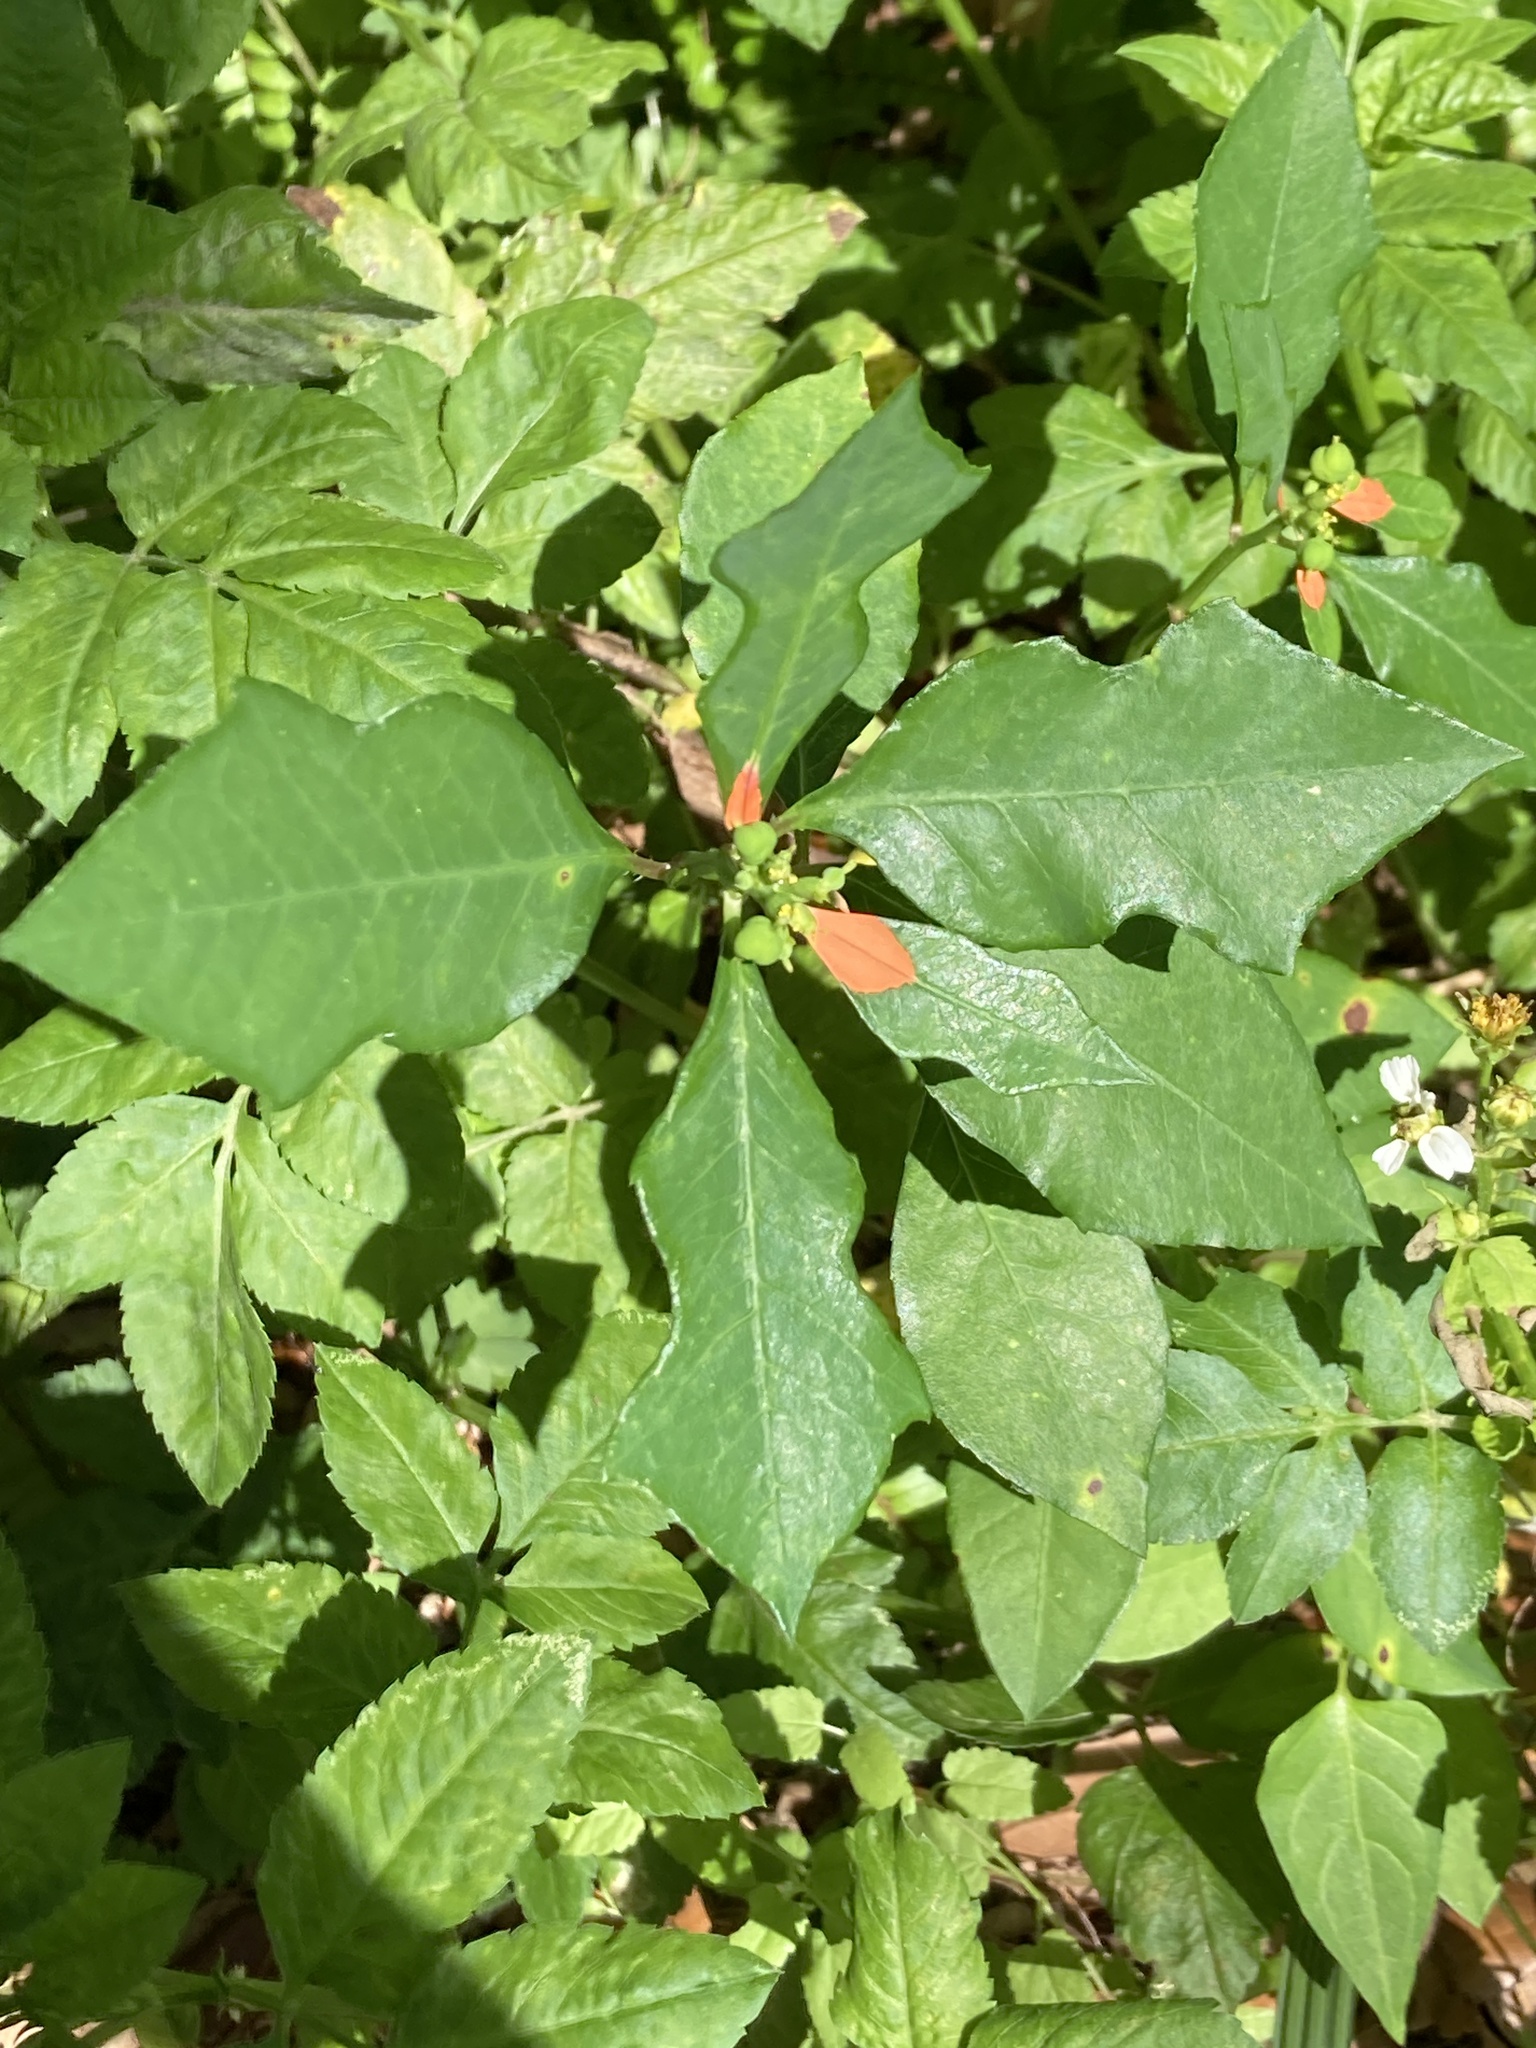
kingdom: Plantae
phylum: Tracheophyta
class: Magnoliopsida
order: Malpighiales
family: Euphorbiaceae
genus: Euphorbia
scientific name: Euphorbia heterophylla
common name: Mexican fireplant
